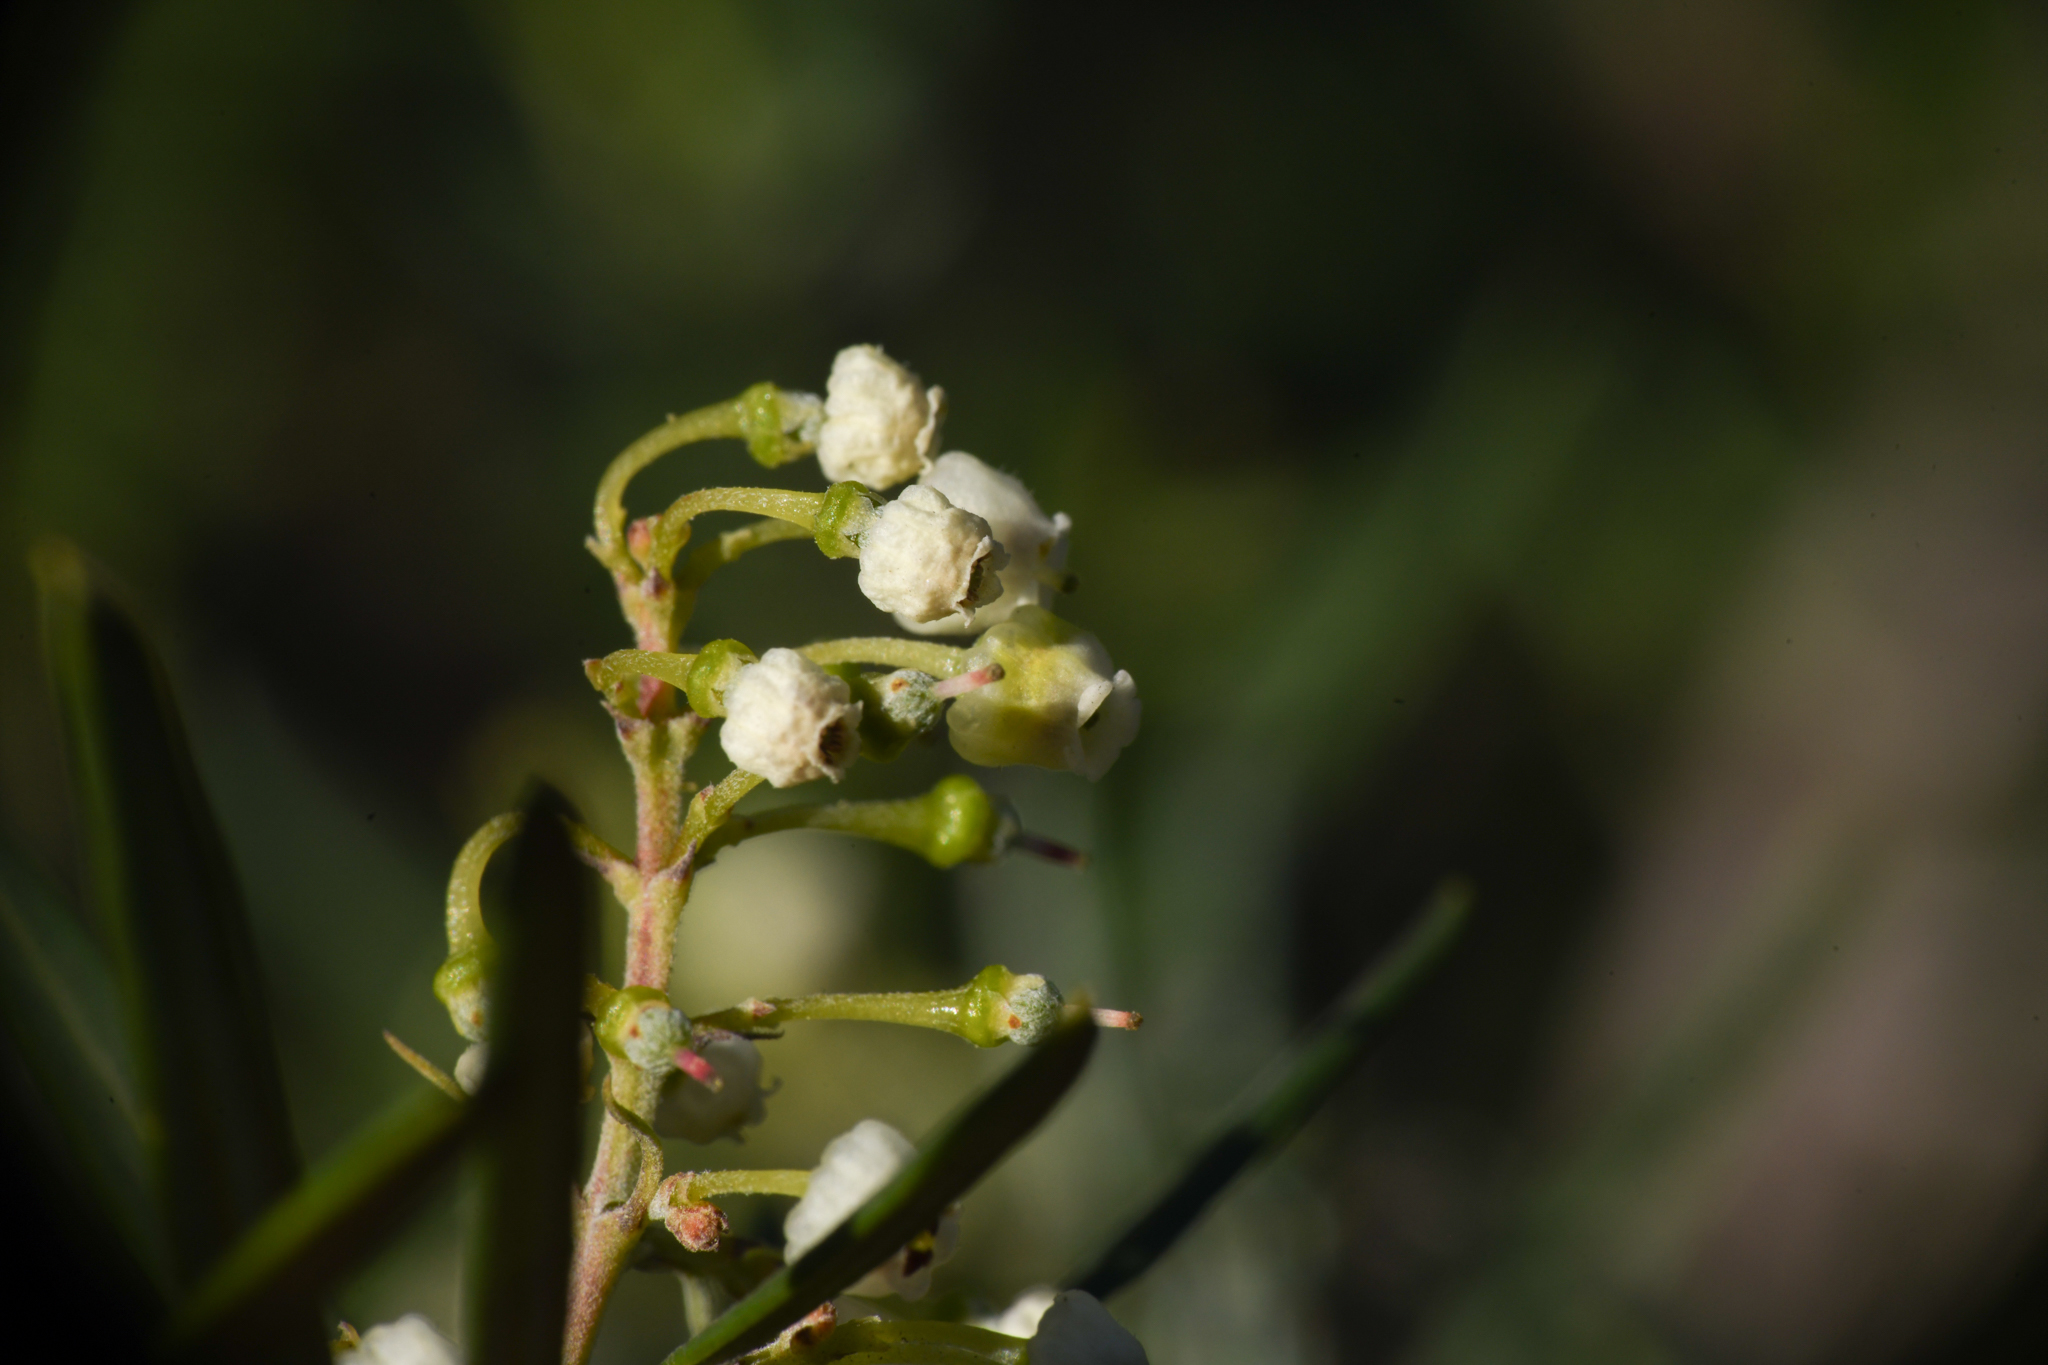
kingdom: Plantae
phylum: Tracheophyta
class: Magnoliopsida
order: Ericales
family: Ericaceae
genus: Ornithostaphylos
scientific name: Ornithostaphylos oppositifolia
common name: Baja california birdbush
